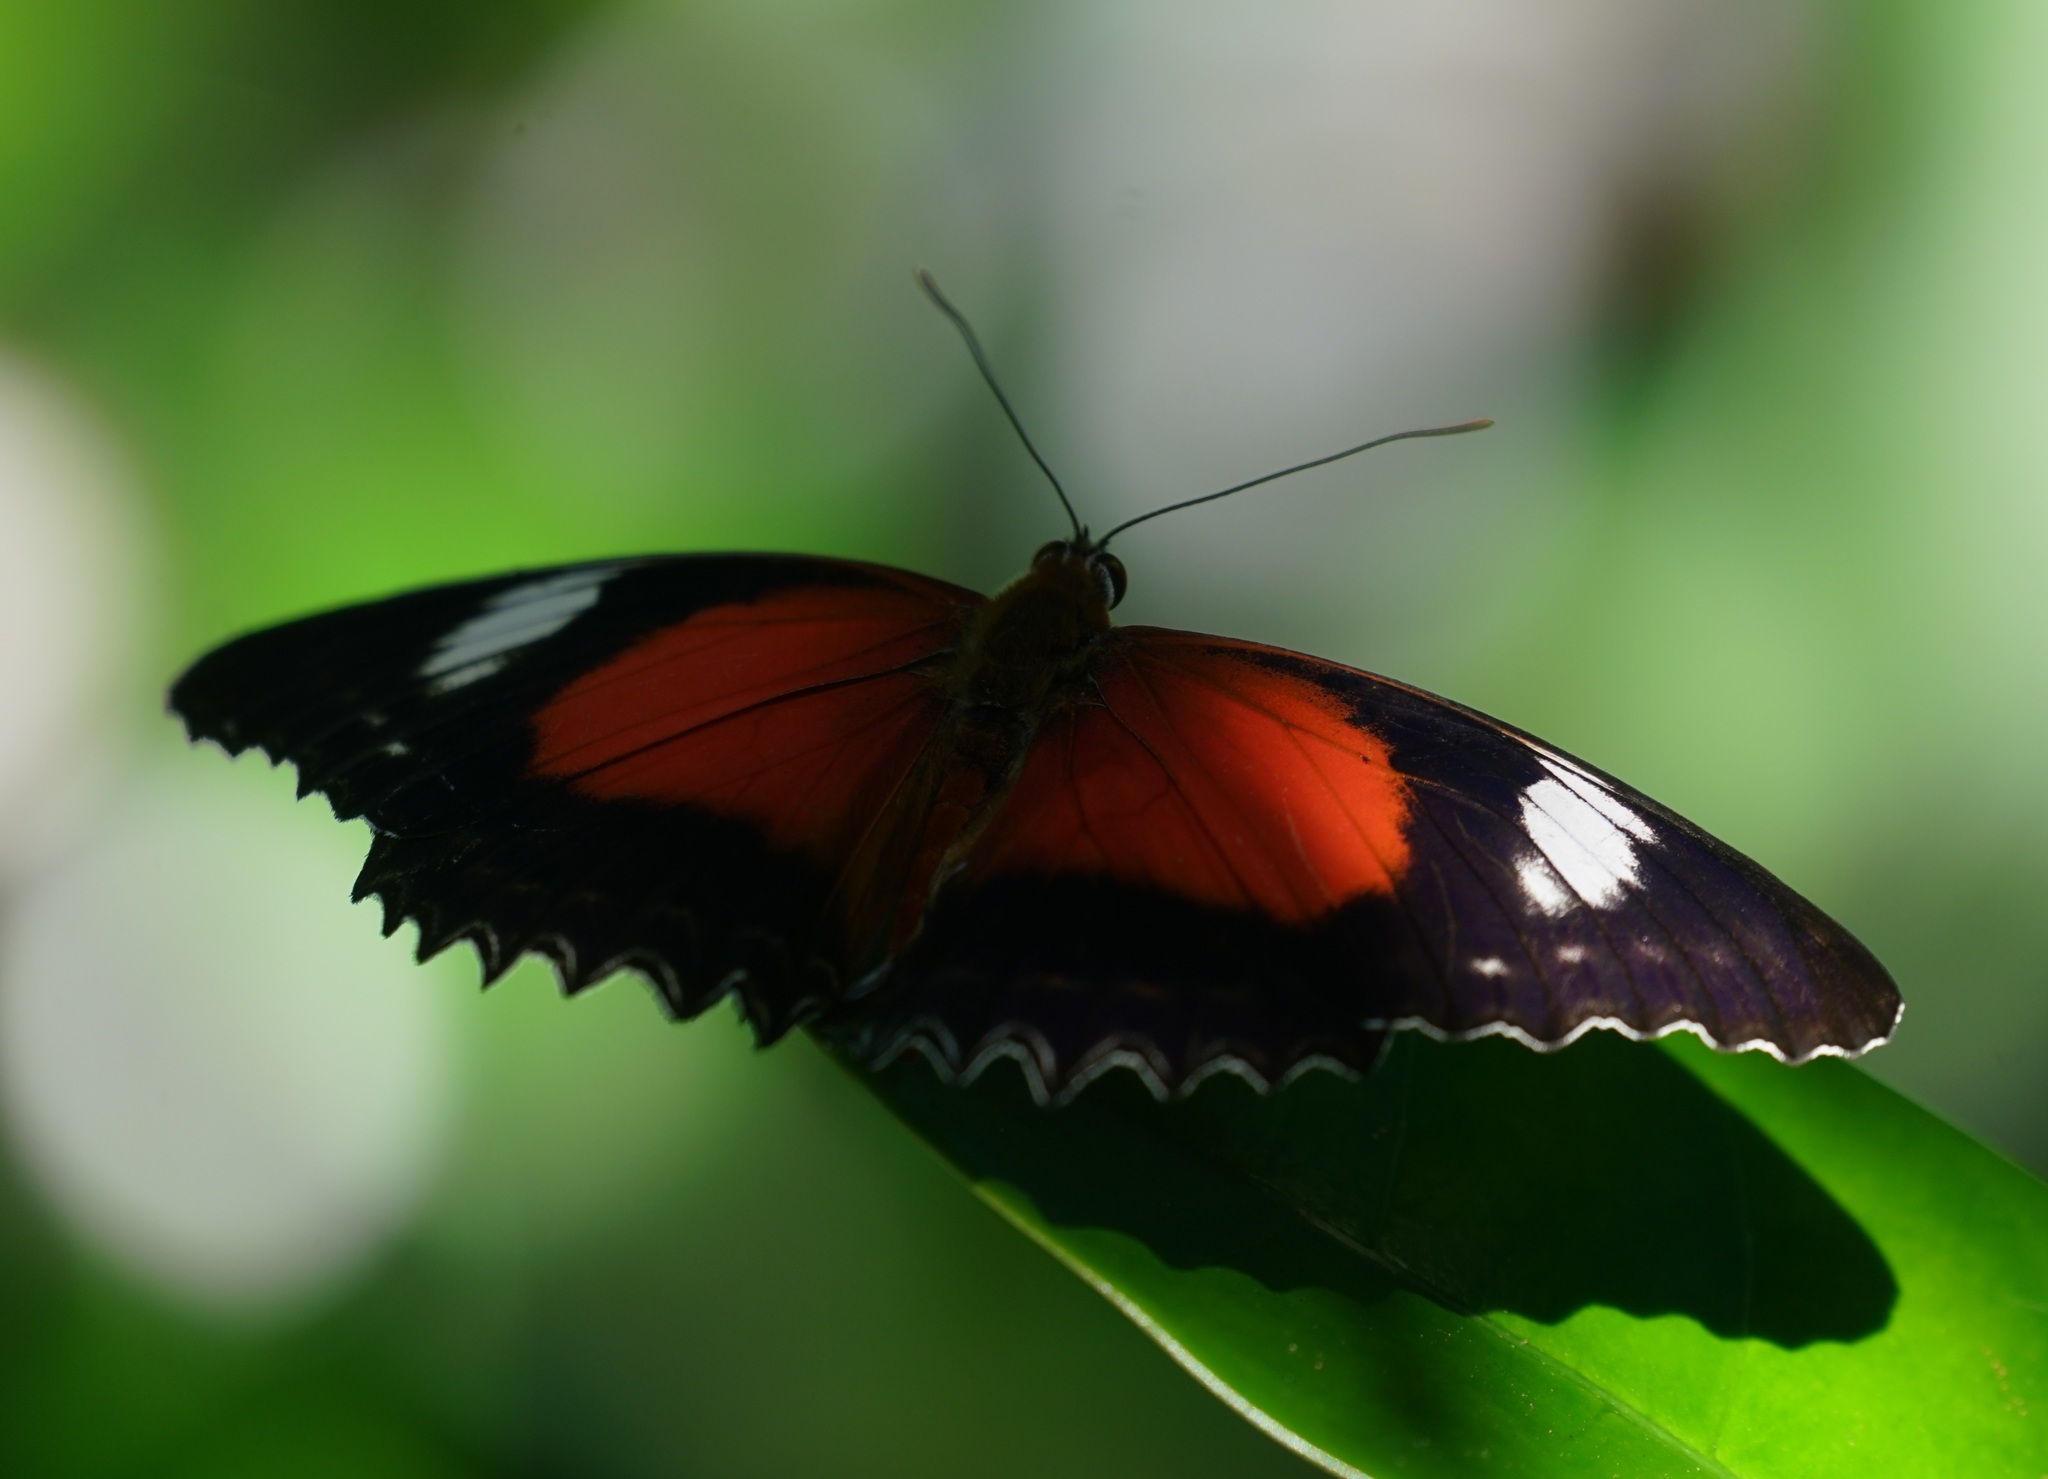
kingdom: Animalia
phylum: Arthropoda
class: Insecta
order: Lepidoptera
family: Nymphalidae
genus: Cethosia
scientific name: Cethosia cydippe
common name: Eastern red lacewing butterfly
